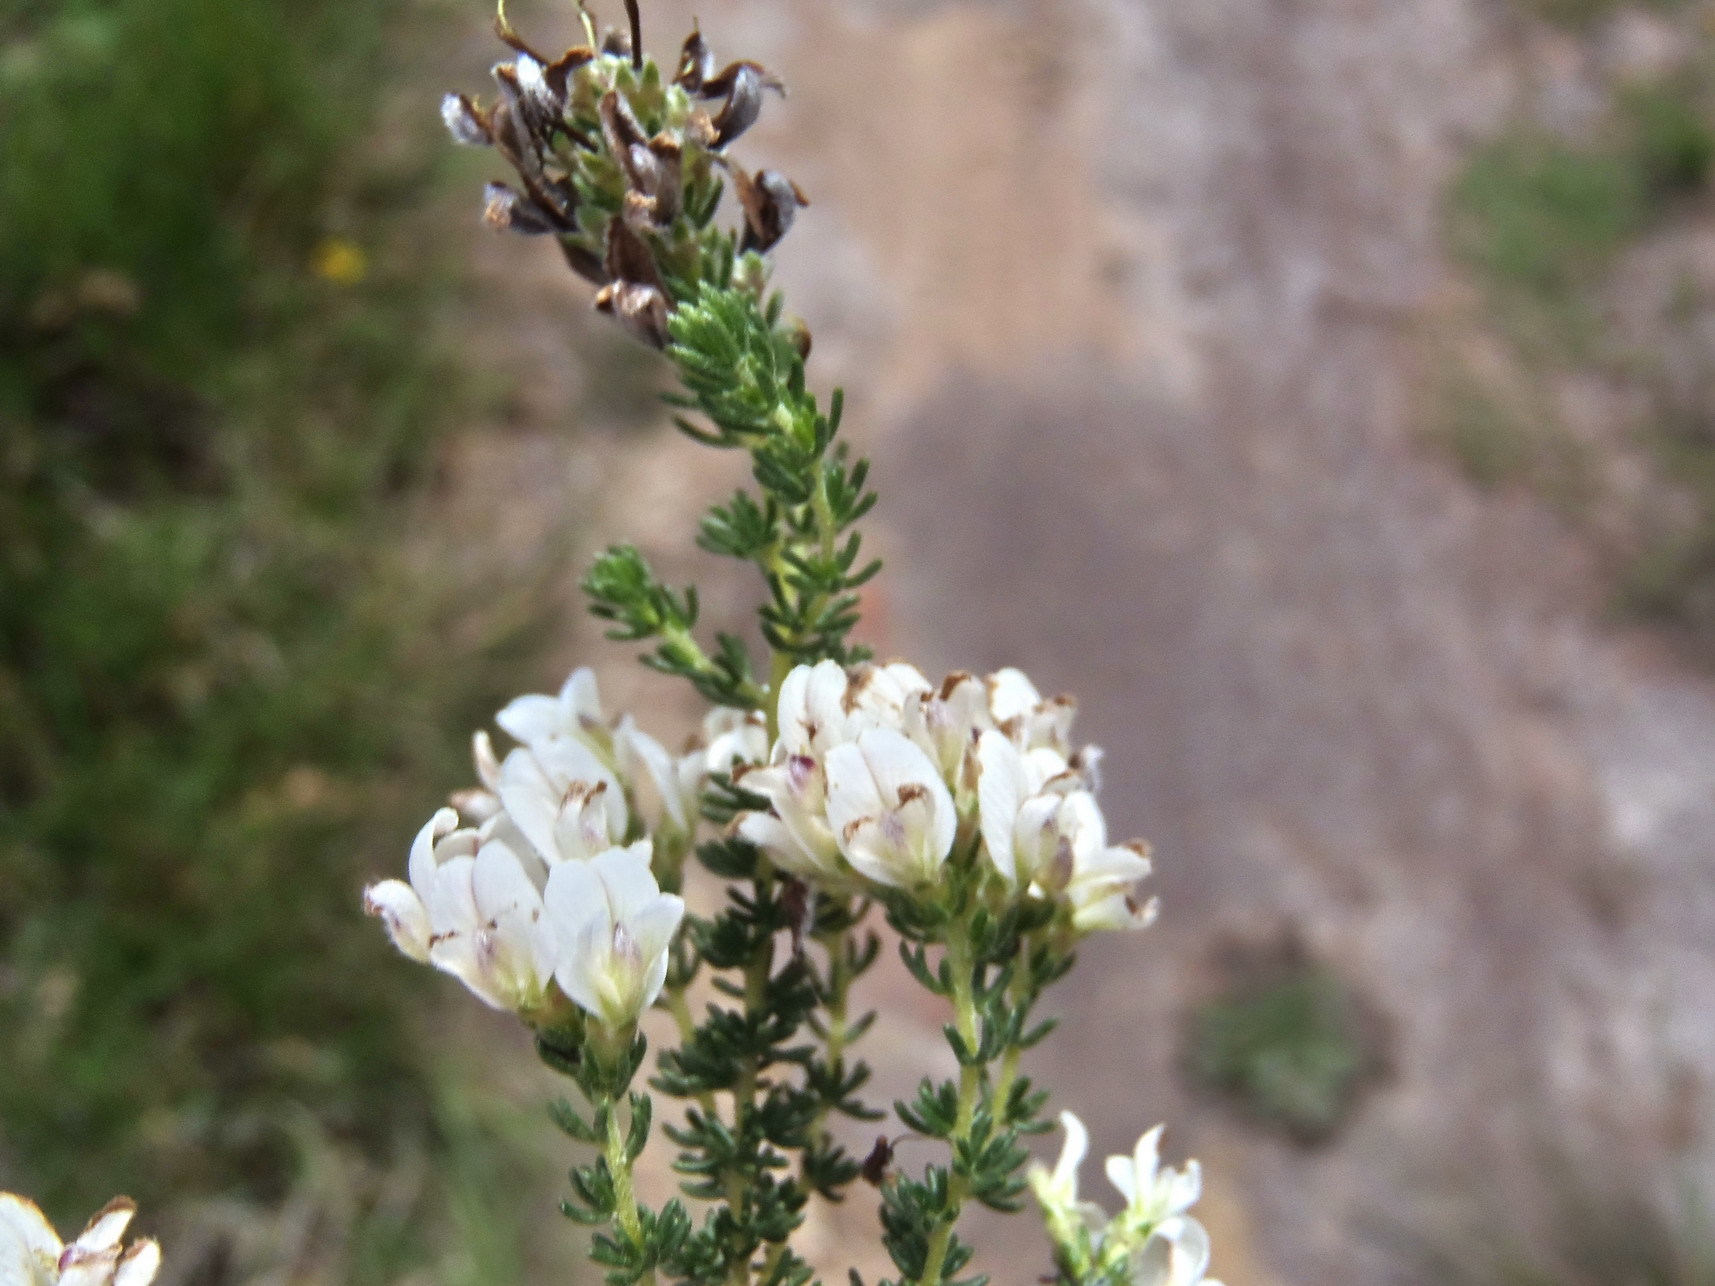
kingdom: Plantae
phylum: Tracheophyta
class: Magnoliopsida
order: Fabales
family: Fabaceae
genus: Aspalathus
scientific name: Aspalathus nigra
